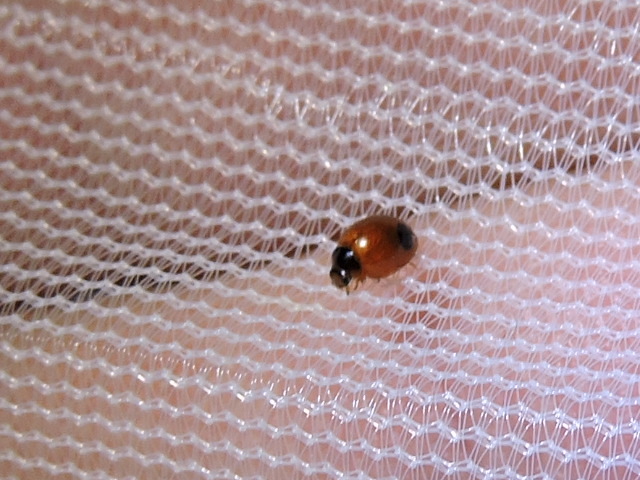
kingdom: Animalia
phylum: Arthropoda
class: Insecta
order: Coleoptera
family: Coccinellidae
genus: Exochomus
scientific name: Exochomus childreni
